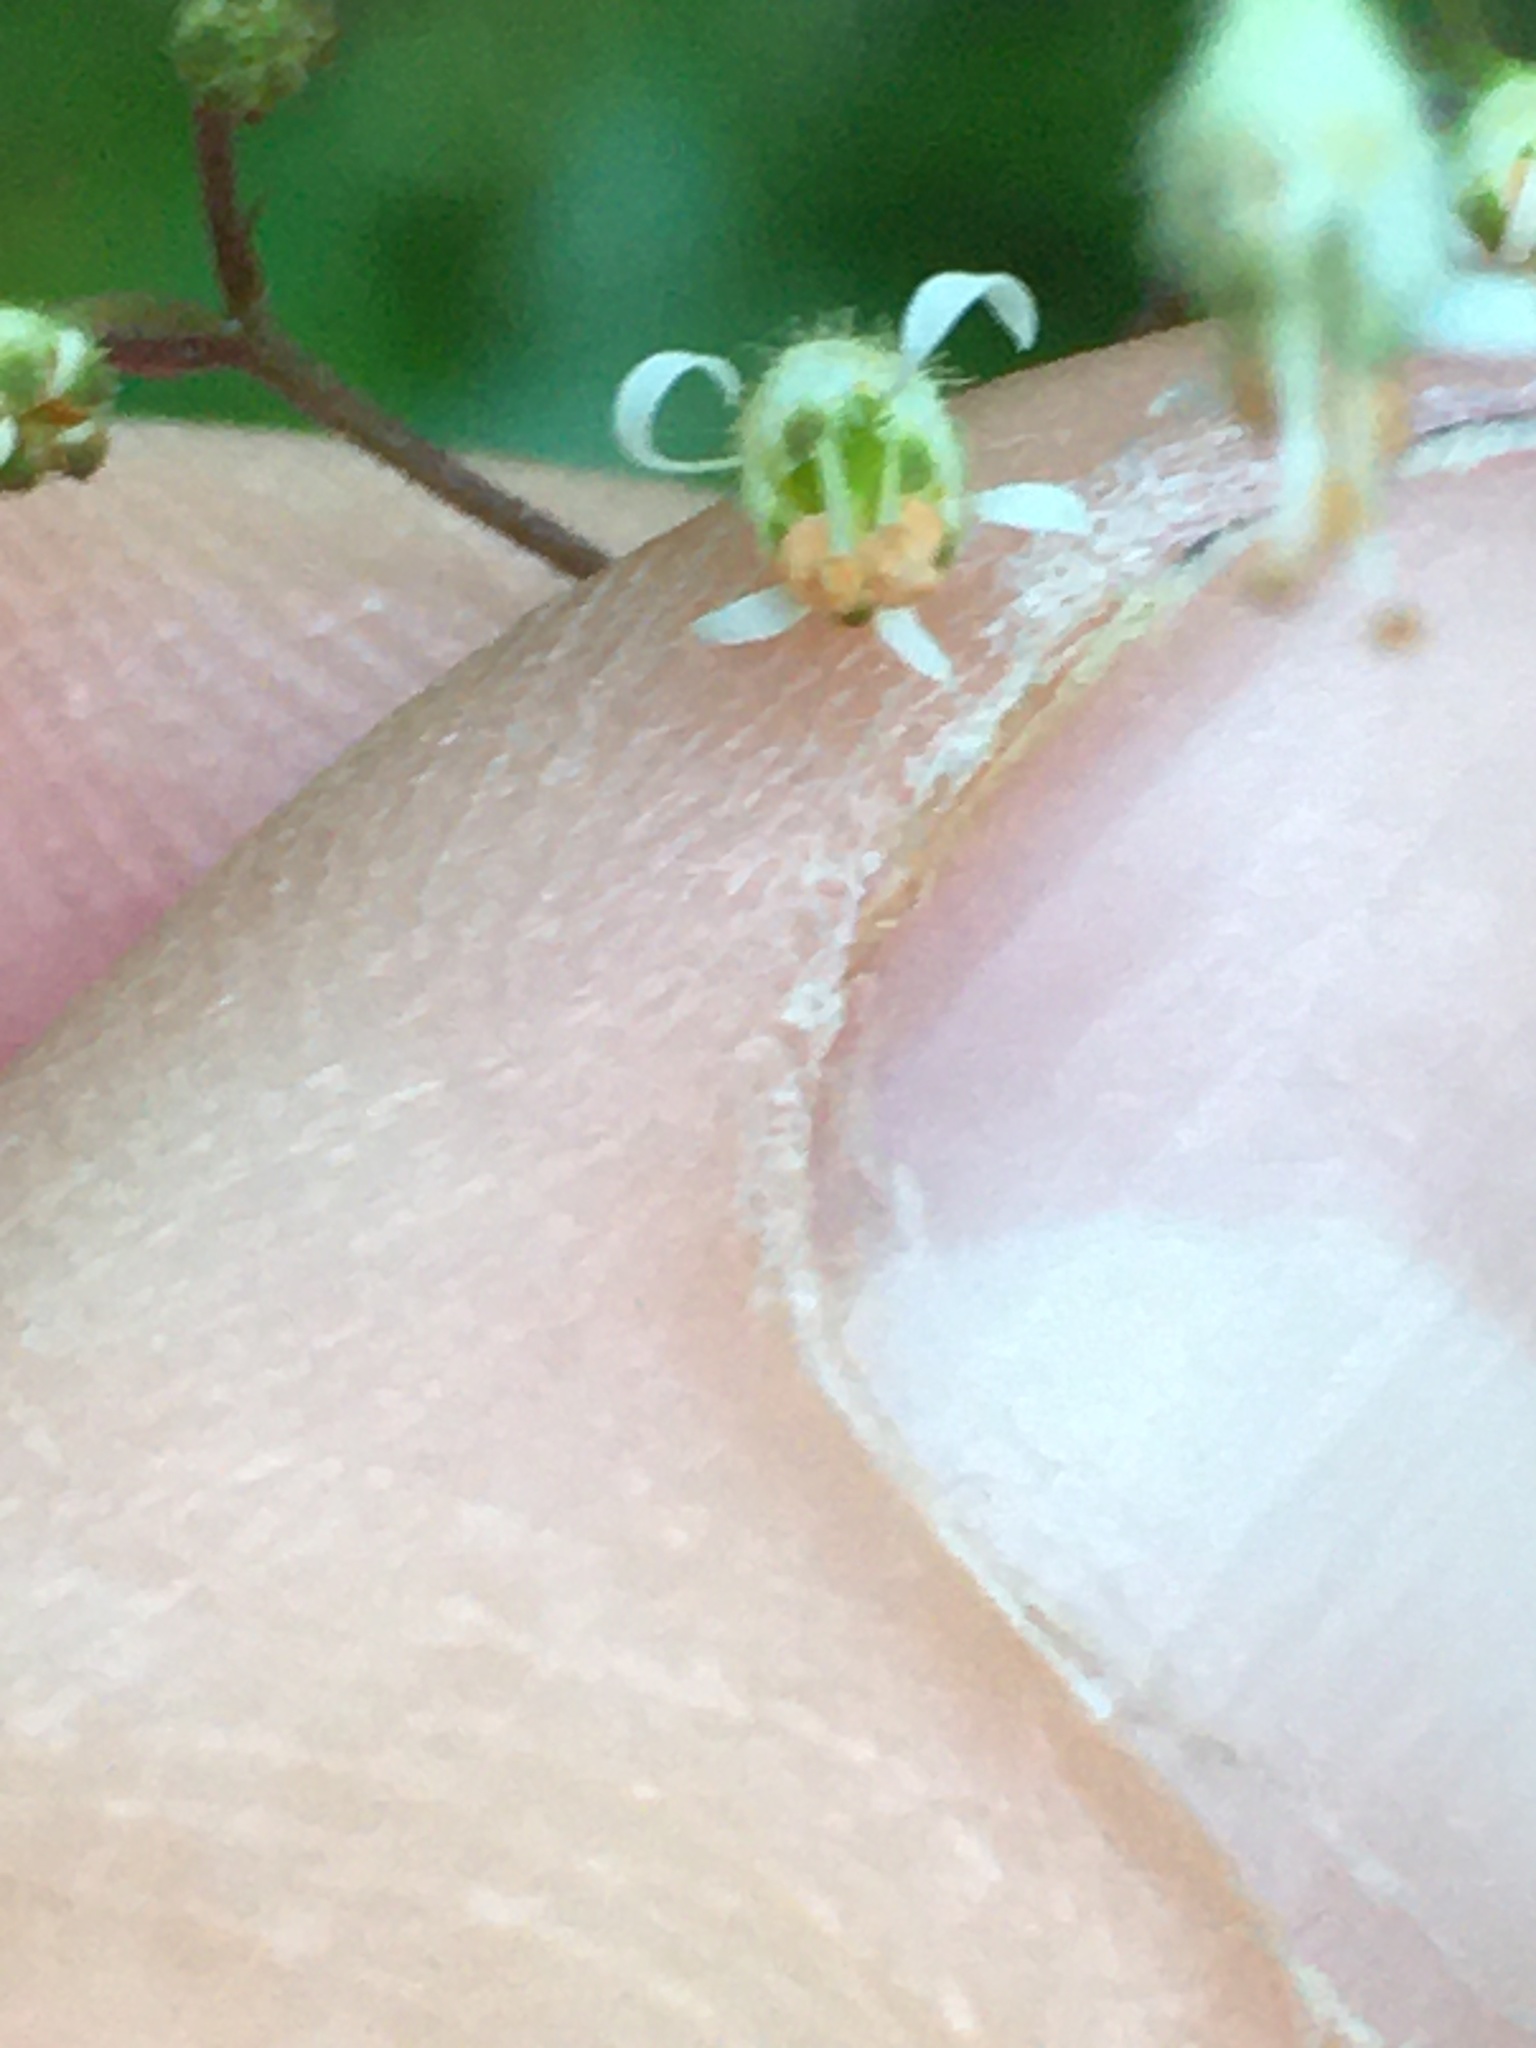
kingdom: Plantae
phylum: Tracheophyta
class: Magnoliopsida
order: Saxifragales
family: Saxifragaceae
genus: Heuchera
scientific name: Heuchera micrantha
